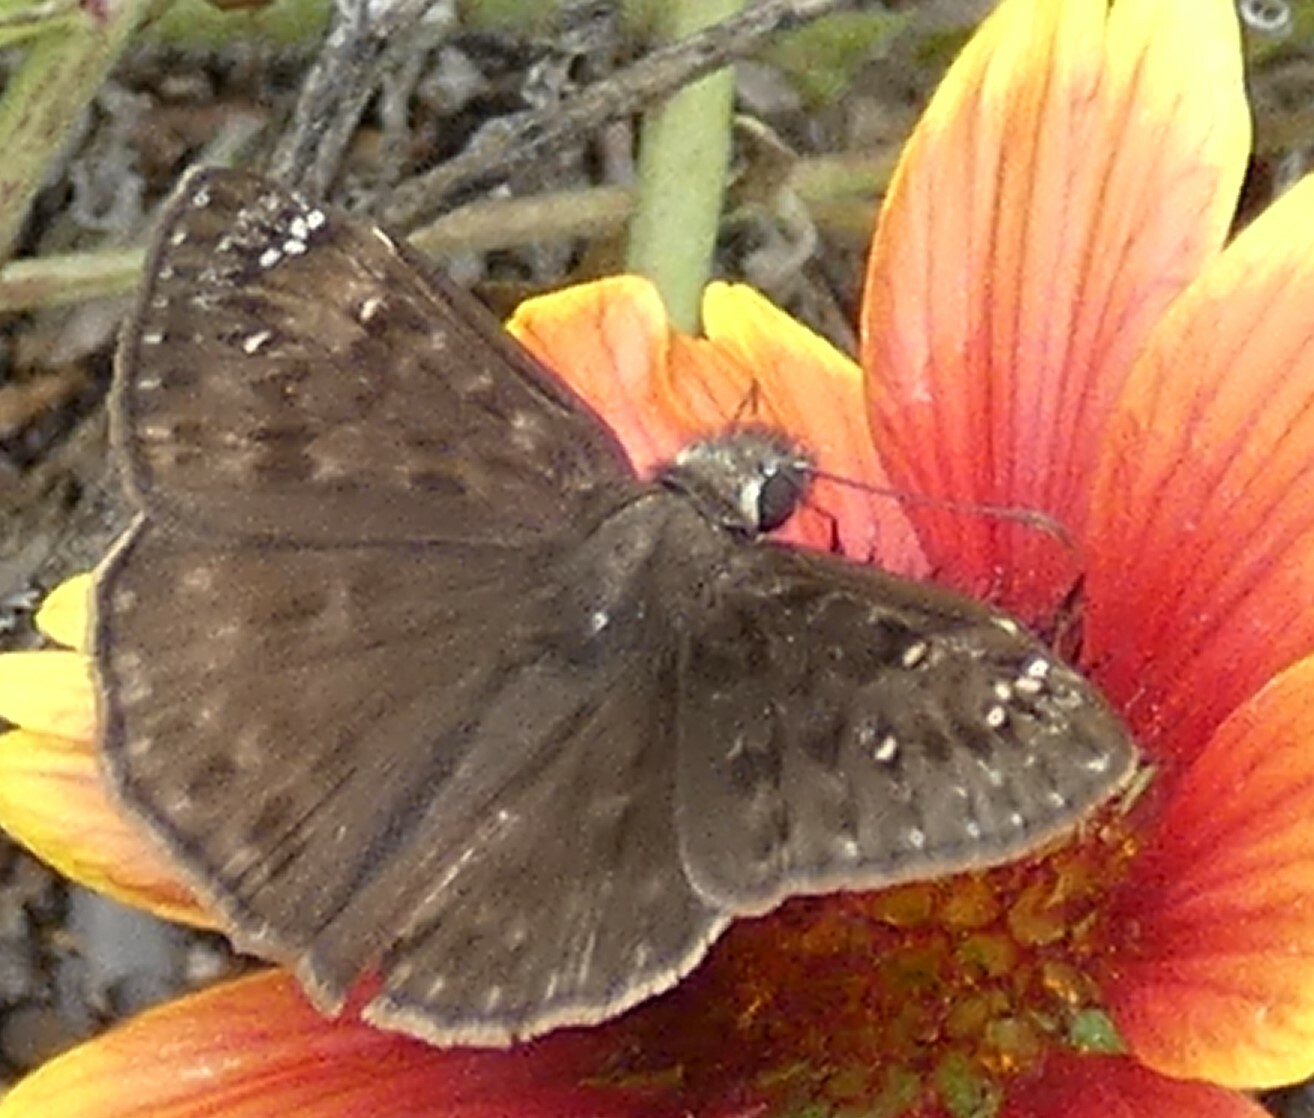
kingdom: Animalia
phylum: Arthropoda
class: Insecta
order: Lepidoptera
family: Hesperiidae
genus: Erynnis
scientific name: Erynnis horatius
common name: Horace's duskywing
